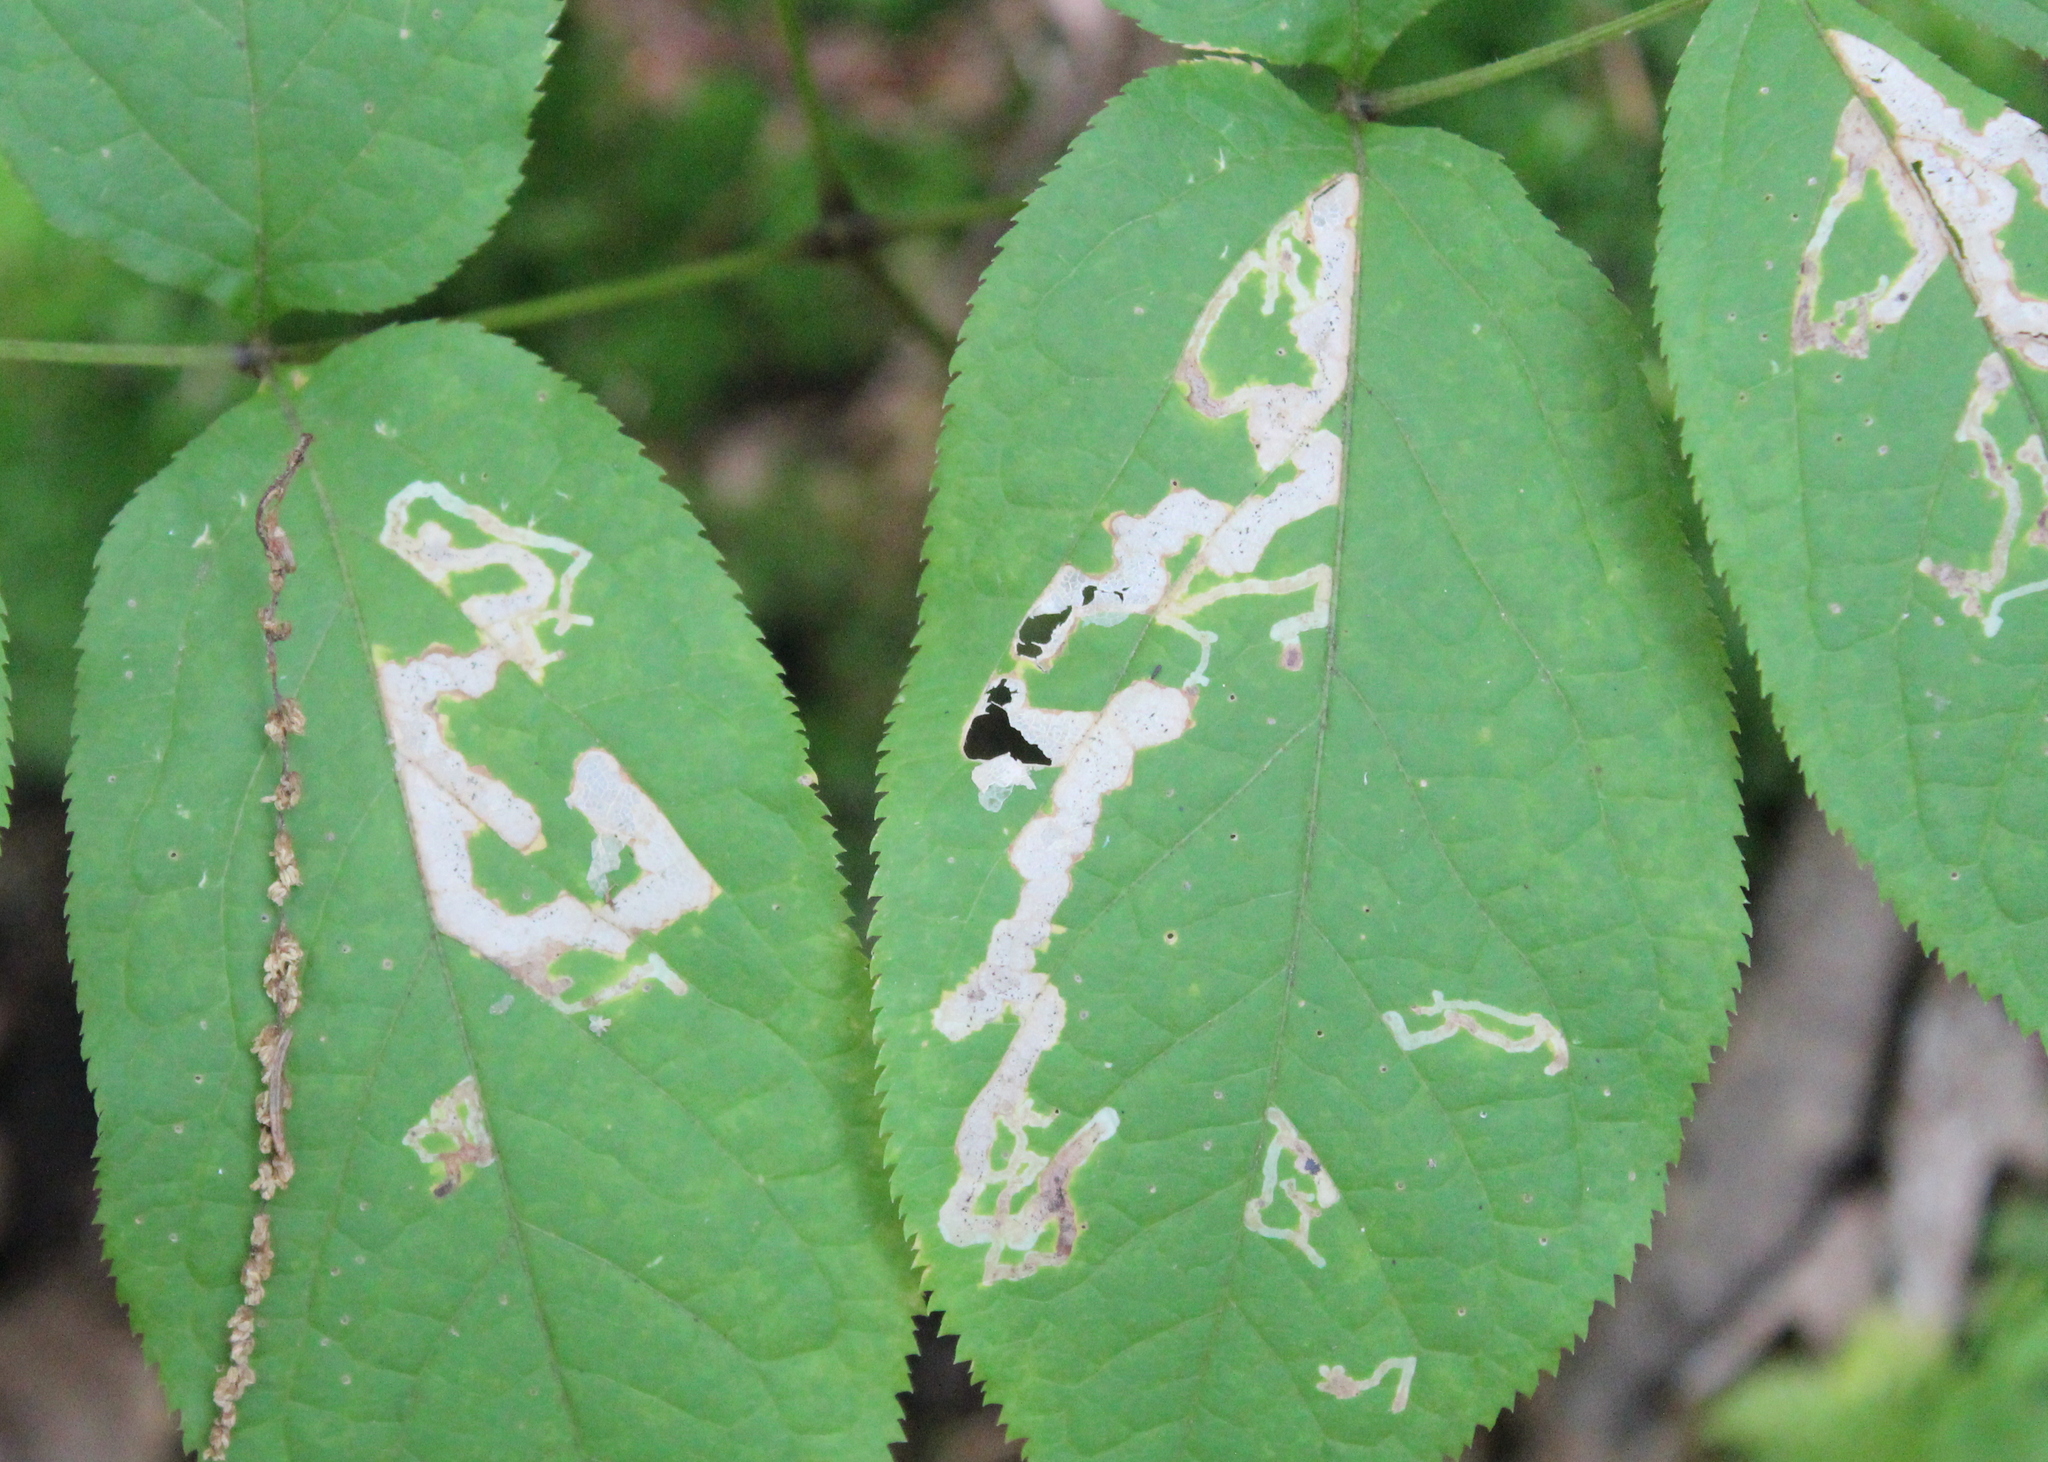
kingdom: Animalia
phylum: Arthropoda
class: Insecta
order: Diptera
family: Agromyzidae
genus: Phytomyza
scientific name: Phytomyza aralivora
